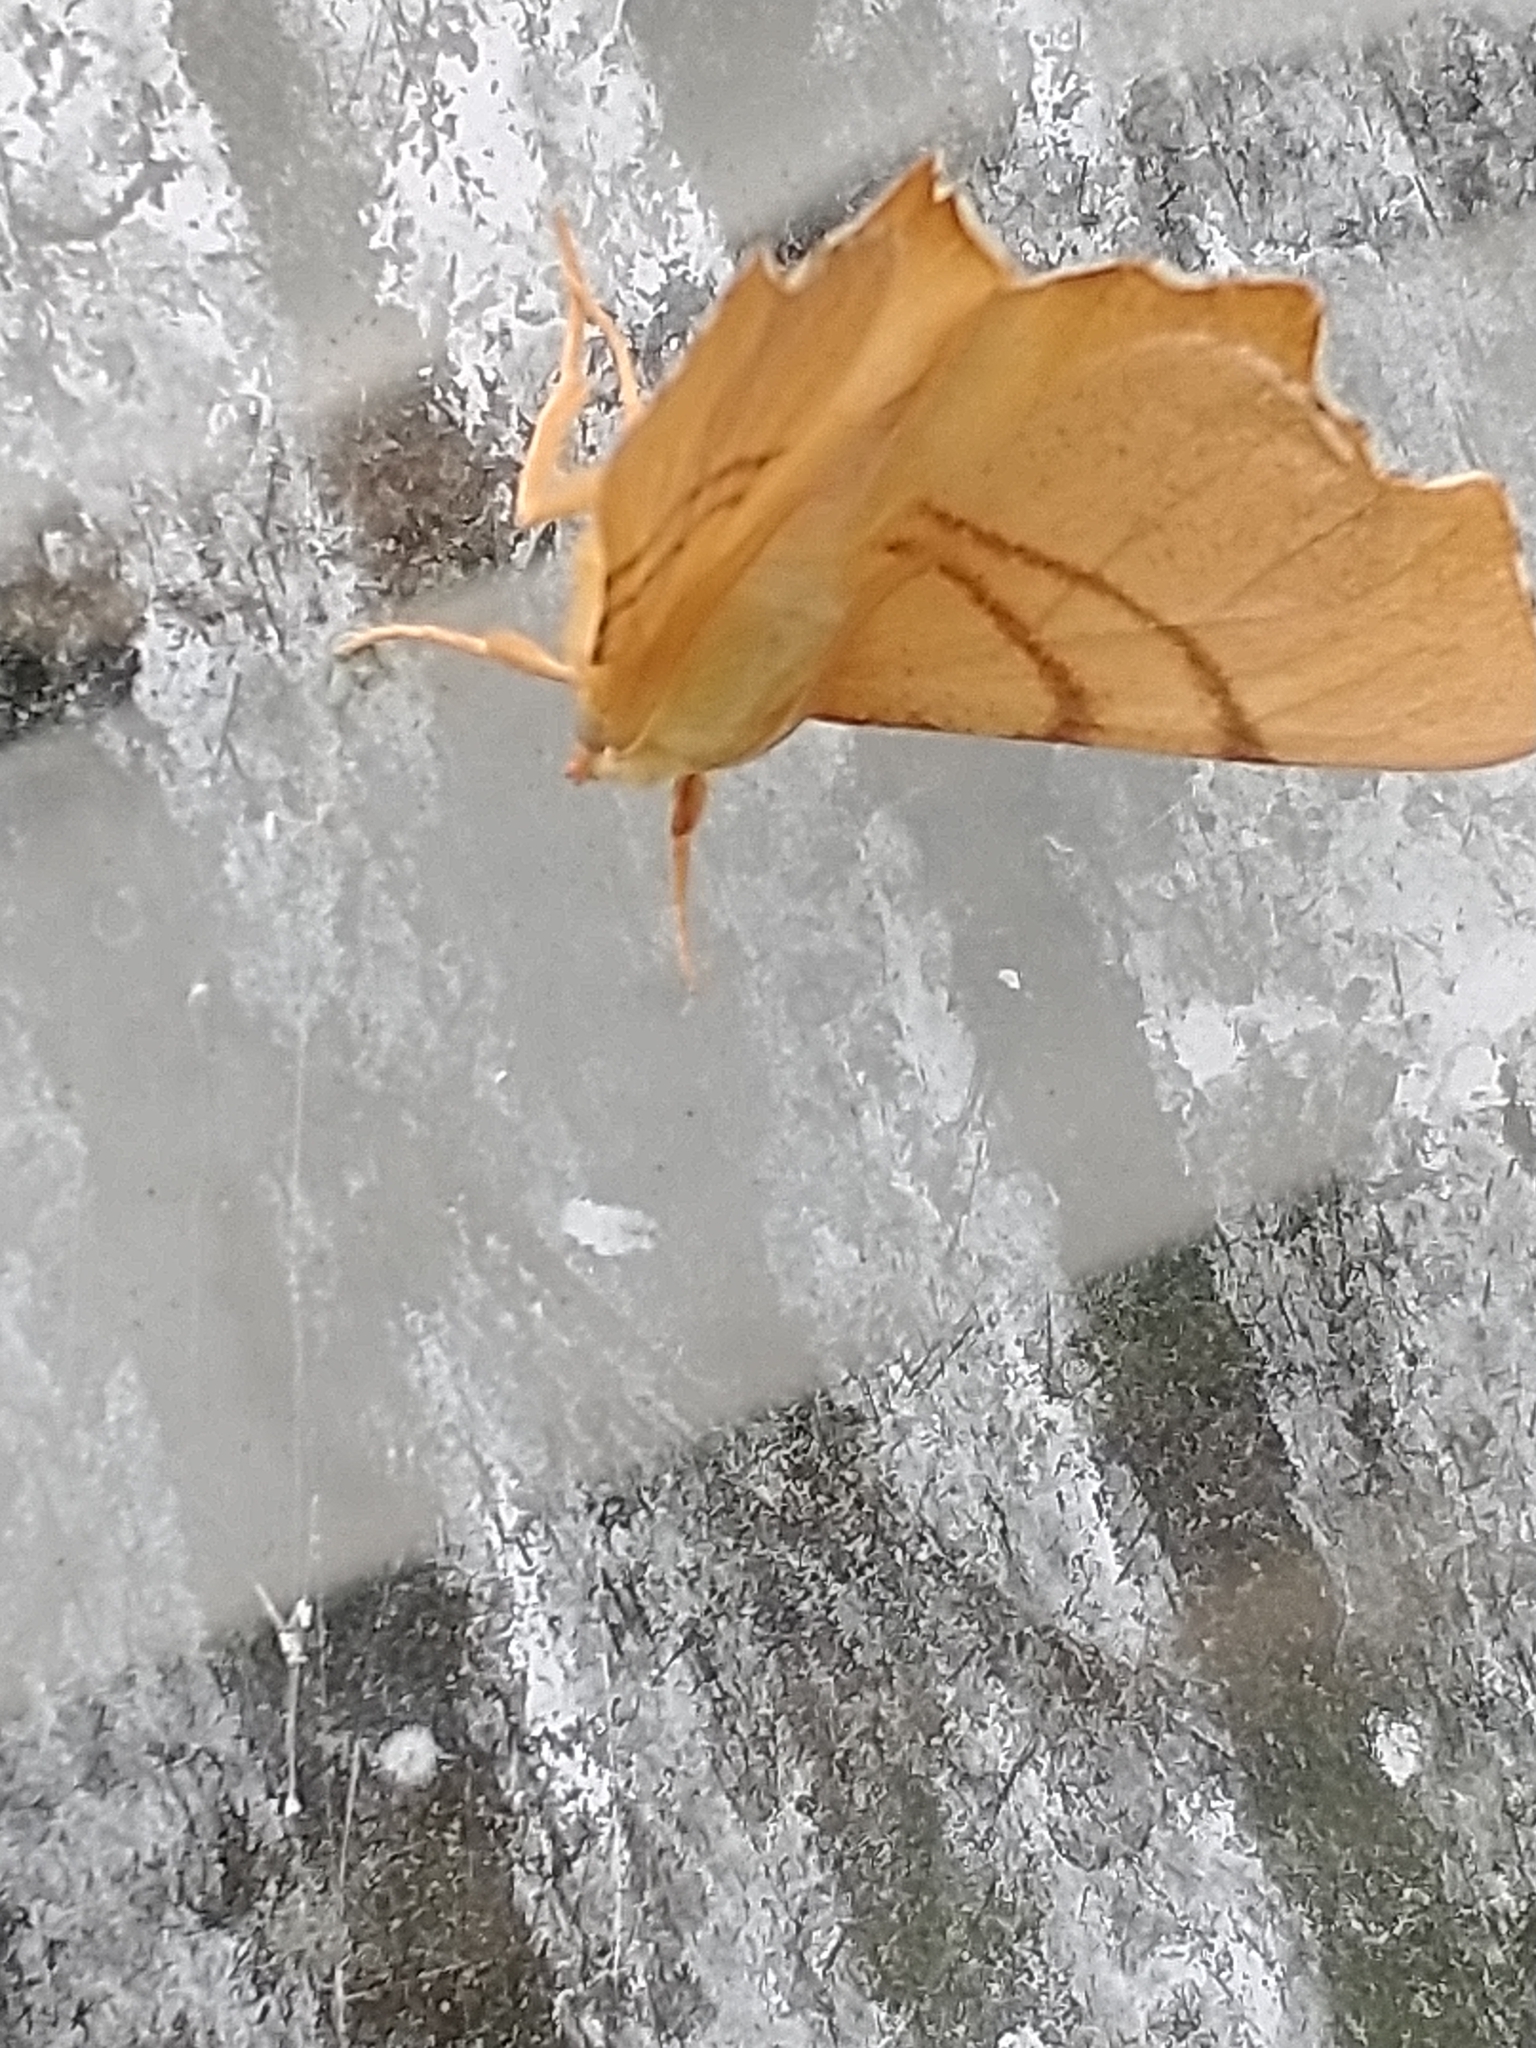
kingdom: Animalia
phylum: Arthropoda
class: Insecta
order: Lepidoptera
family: Geometridae
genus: Ennomos
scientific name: Ennomos erosaria
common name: September thorn
